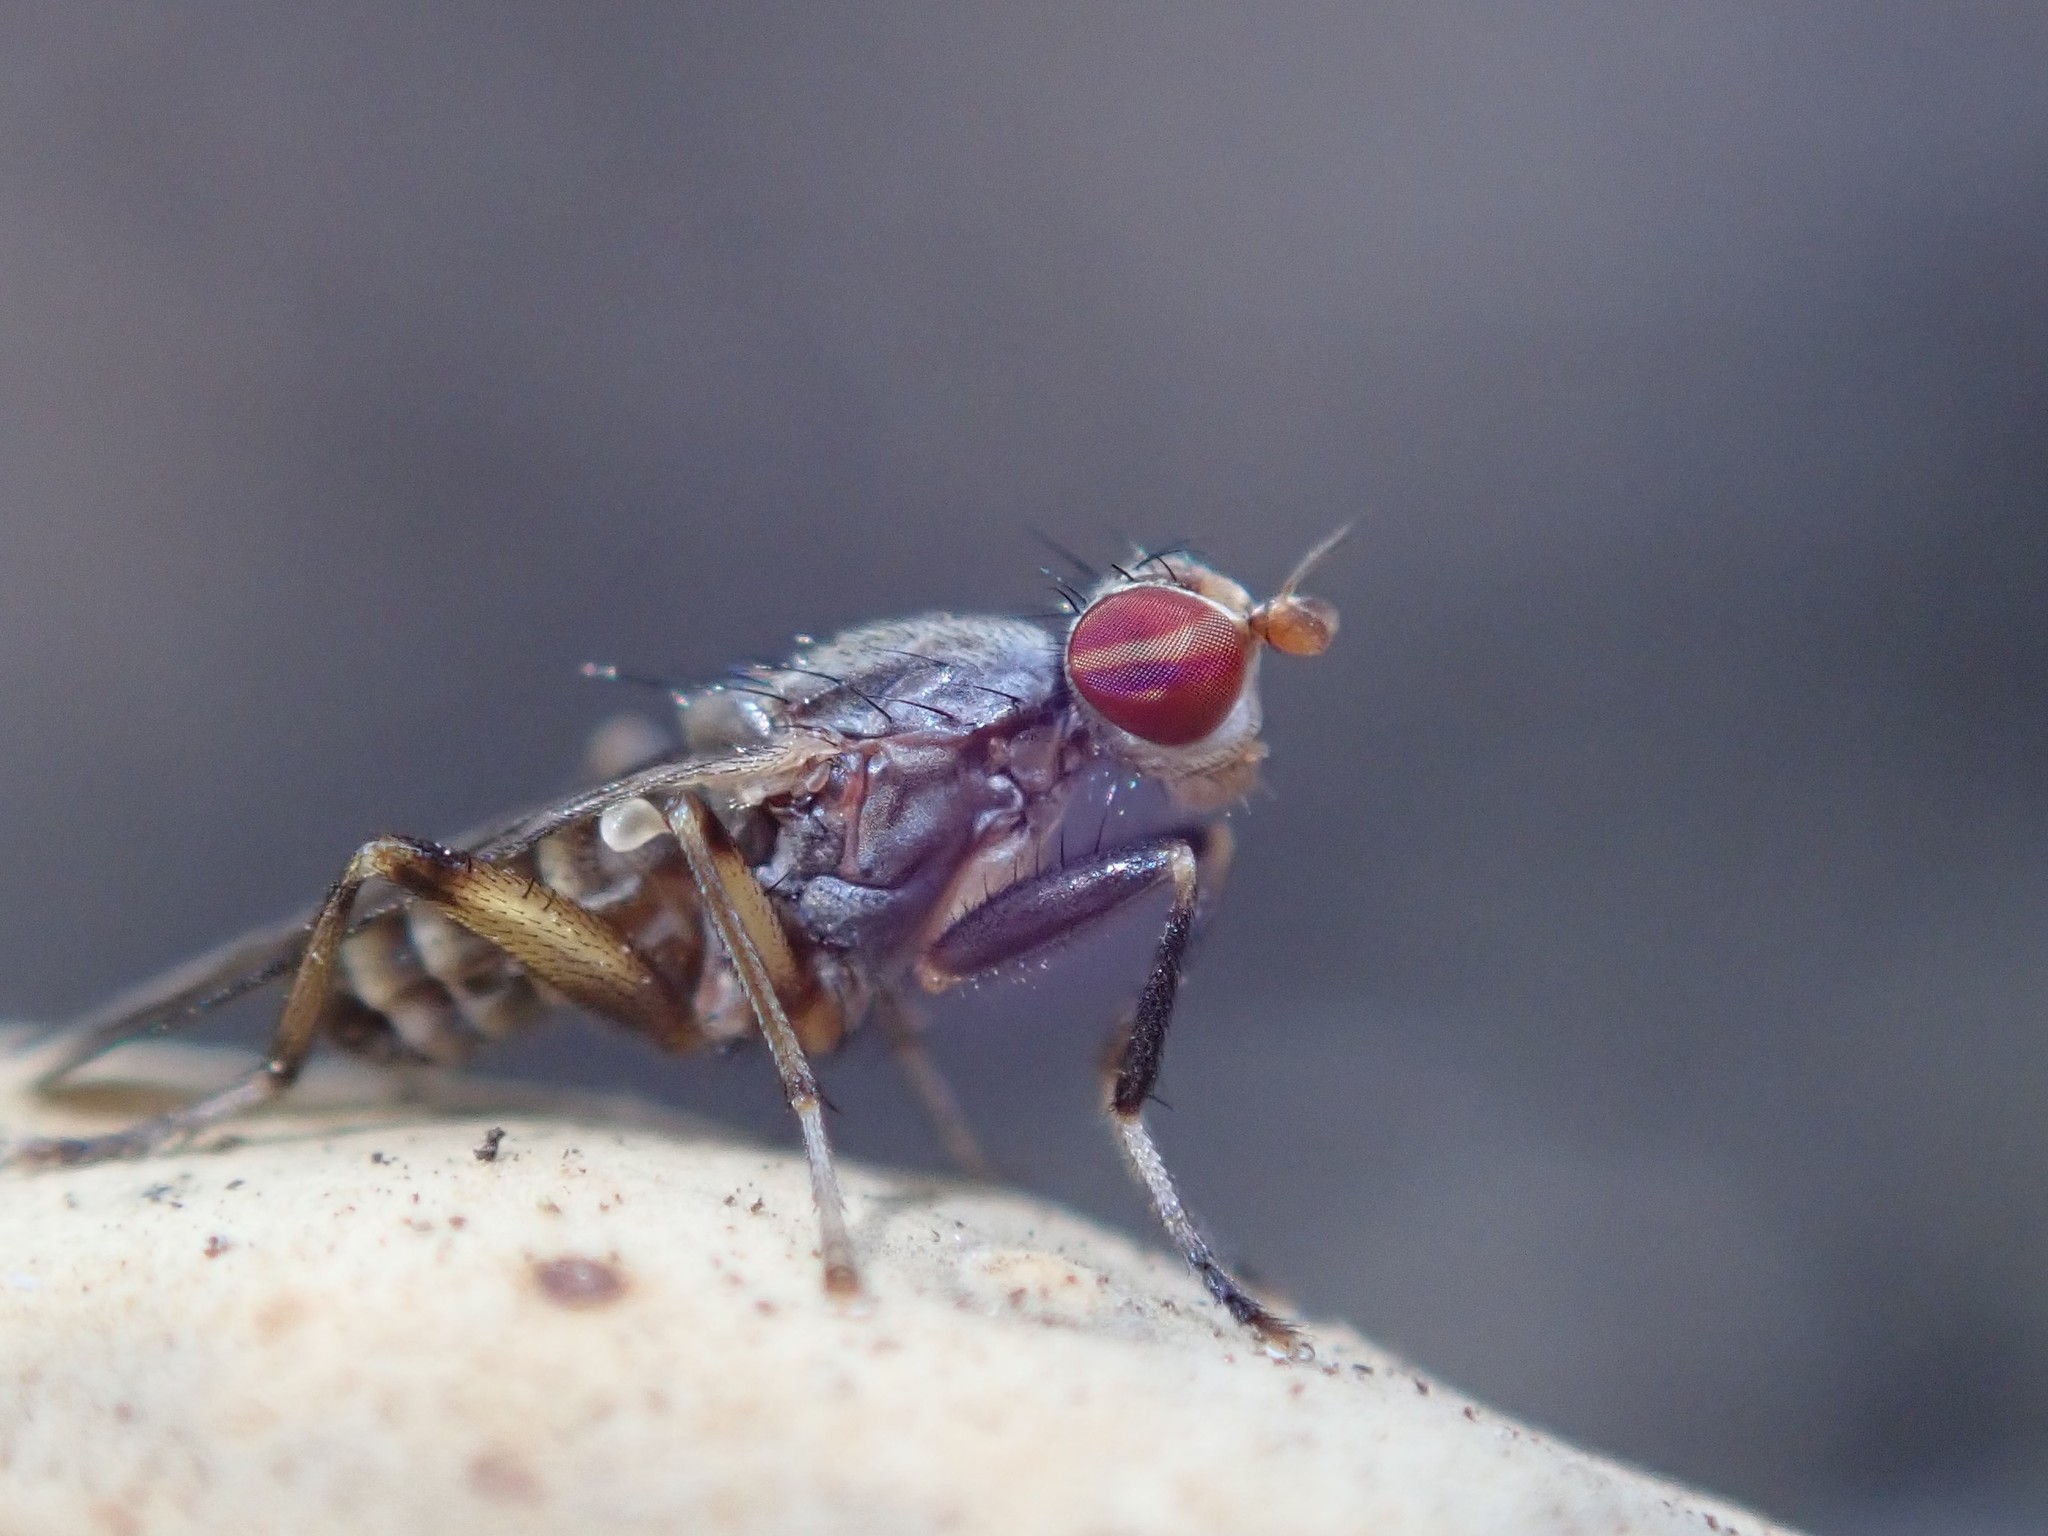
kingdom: Animalia
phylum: Arthropoda
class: Insecta
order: Diptera
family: Sciomyzidae
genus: Pherbellia
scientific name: Pherbellia annulipes
